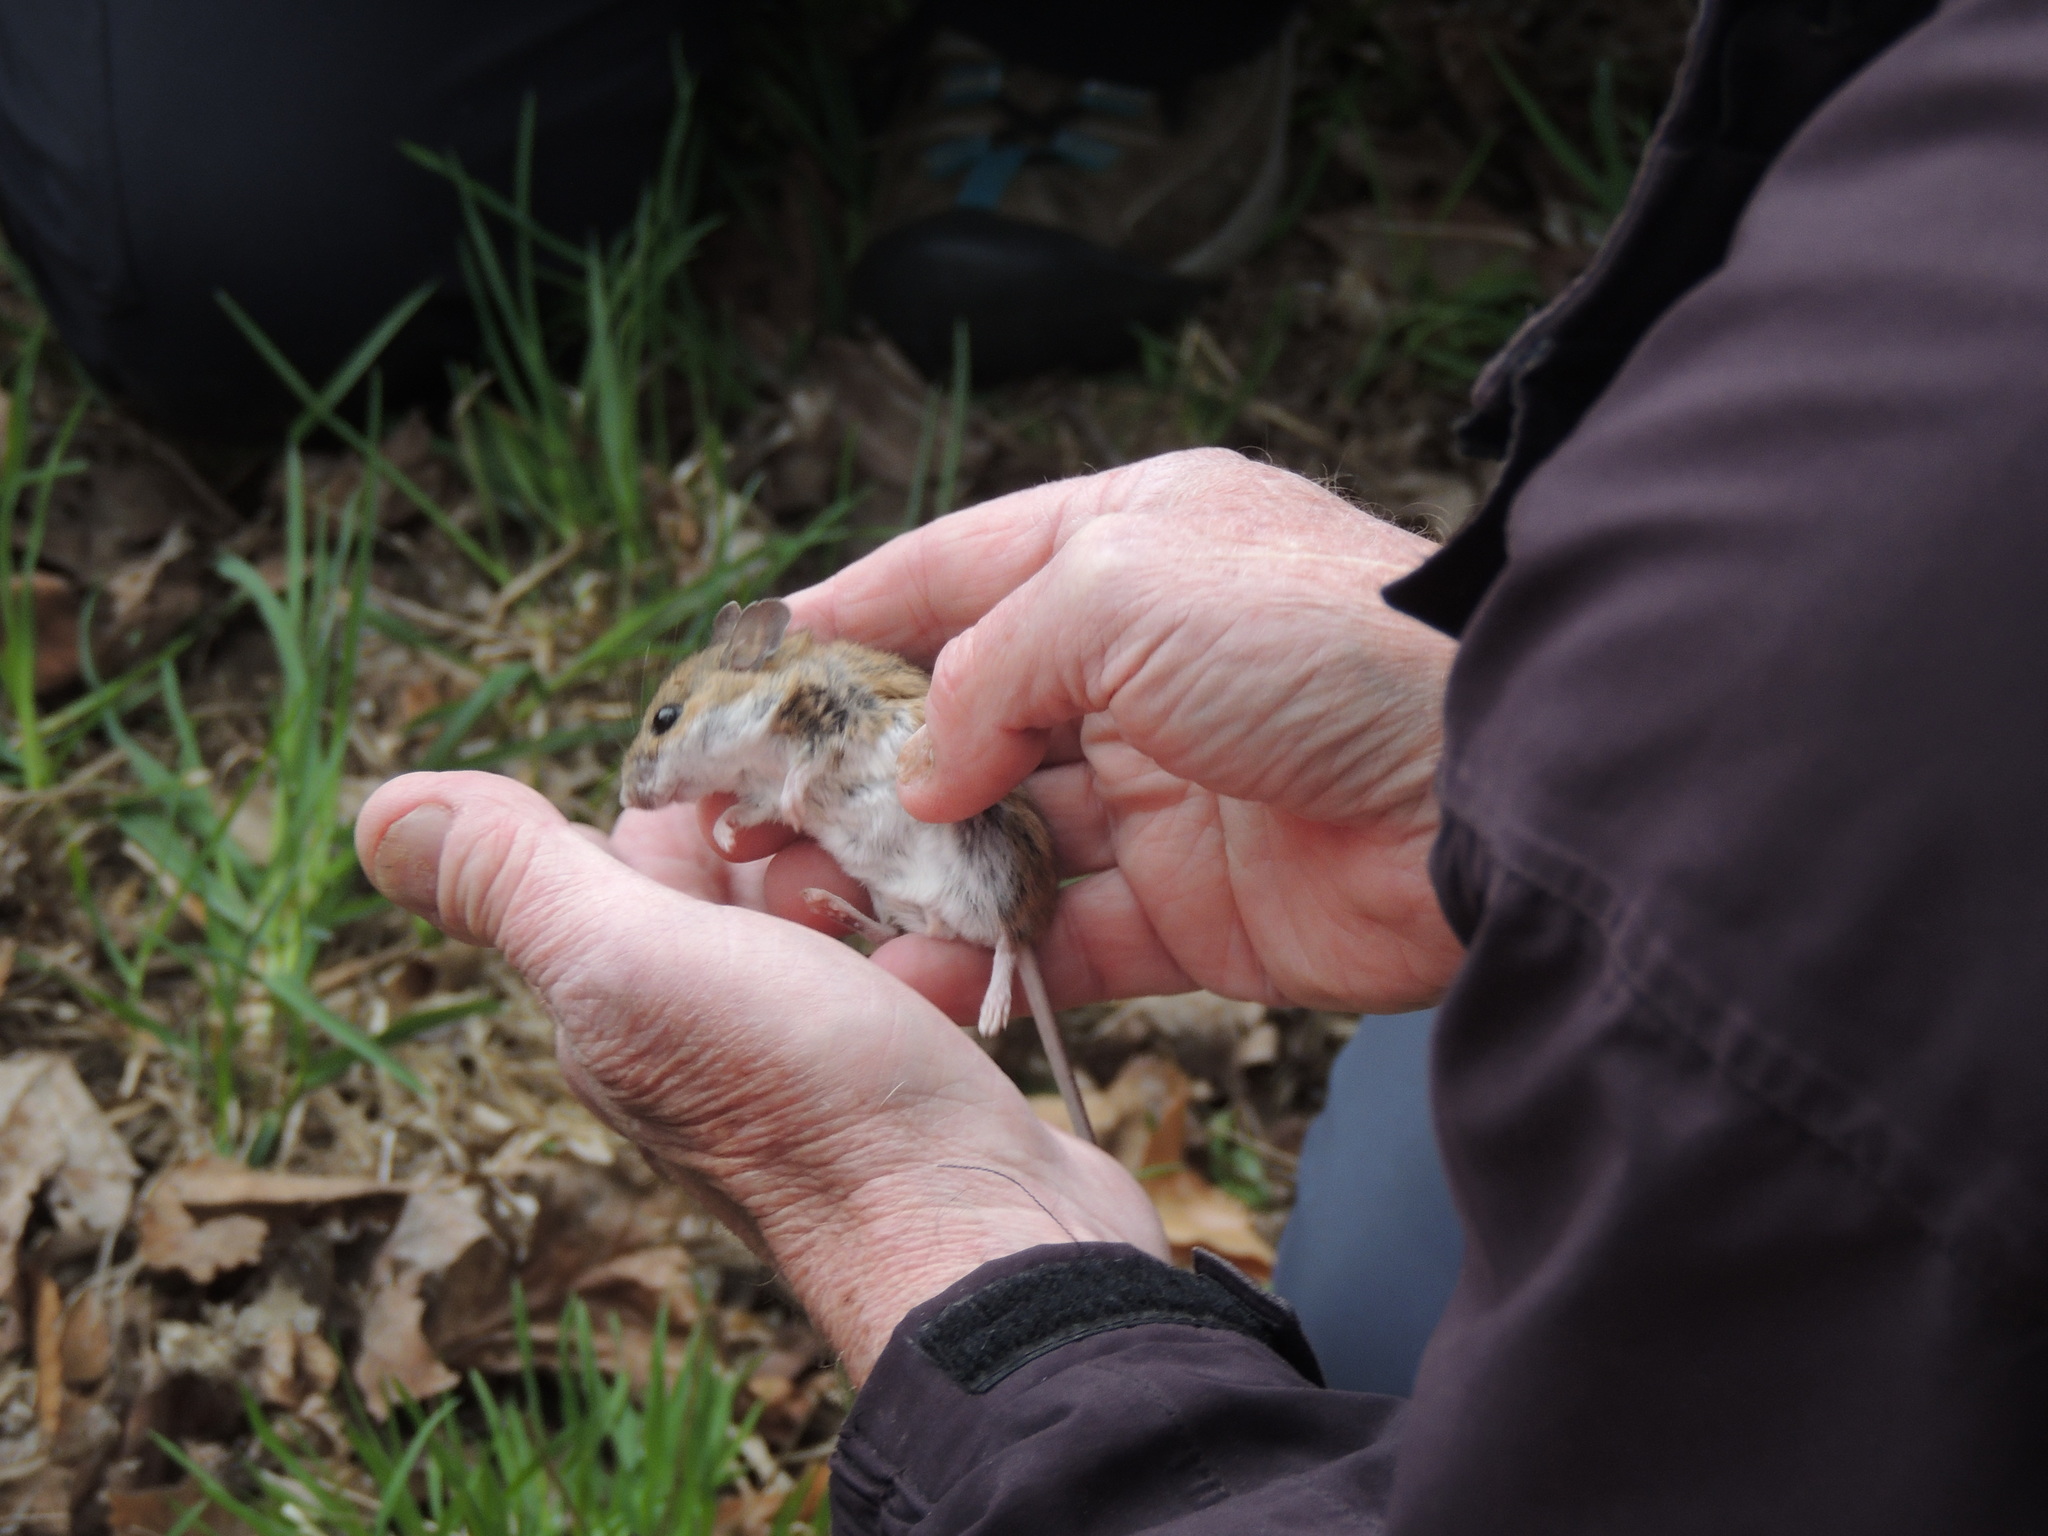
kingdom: Animalia
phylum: Chordata
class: Mammalia
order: Rodentia
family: Cricetidae
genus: Peromyscus
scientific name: Peromyscus maniculatus
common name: Deer mouse
